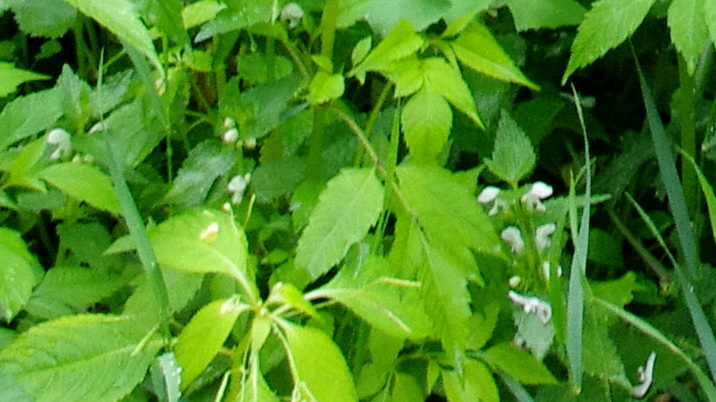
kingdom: Plantae
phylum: Tracheophyta
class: Magnoliopsida
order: Lamiales
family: Lamiaceae
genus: Lamium
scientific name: Lamium album
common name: White dead-nettle
